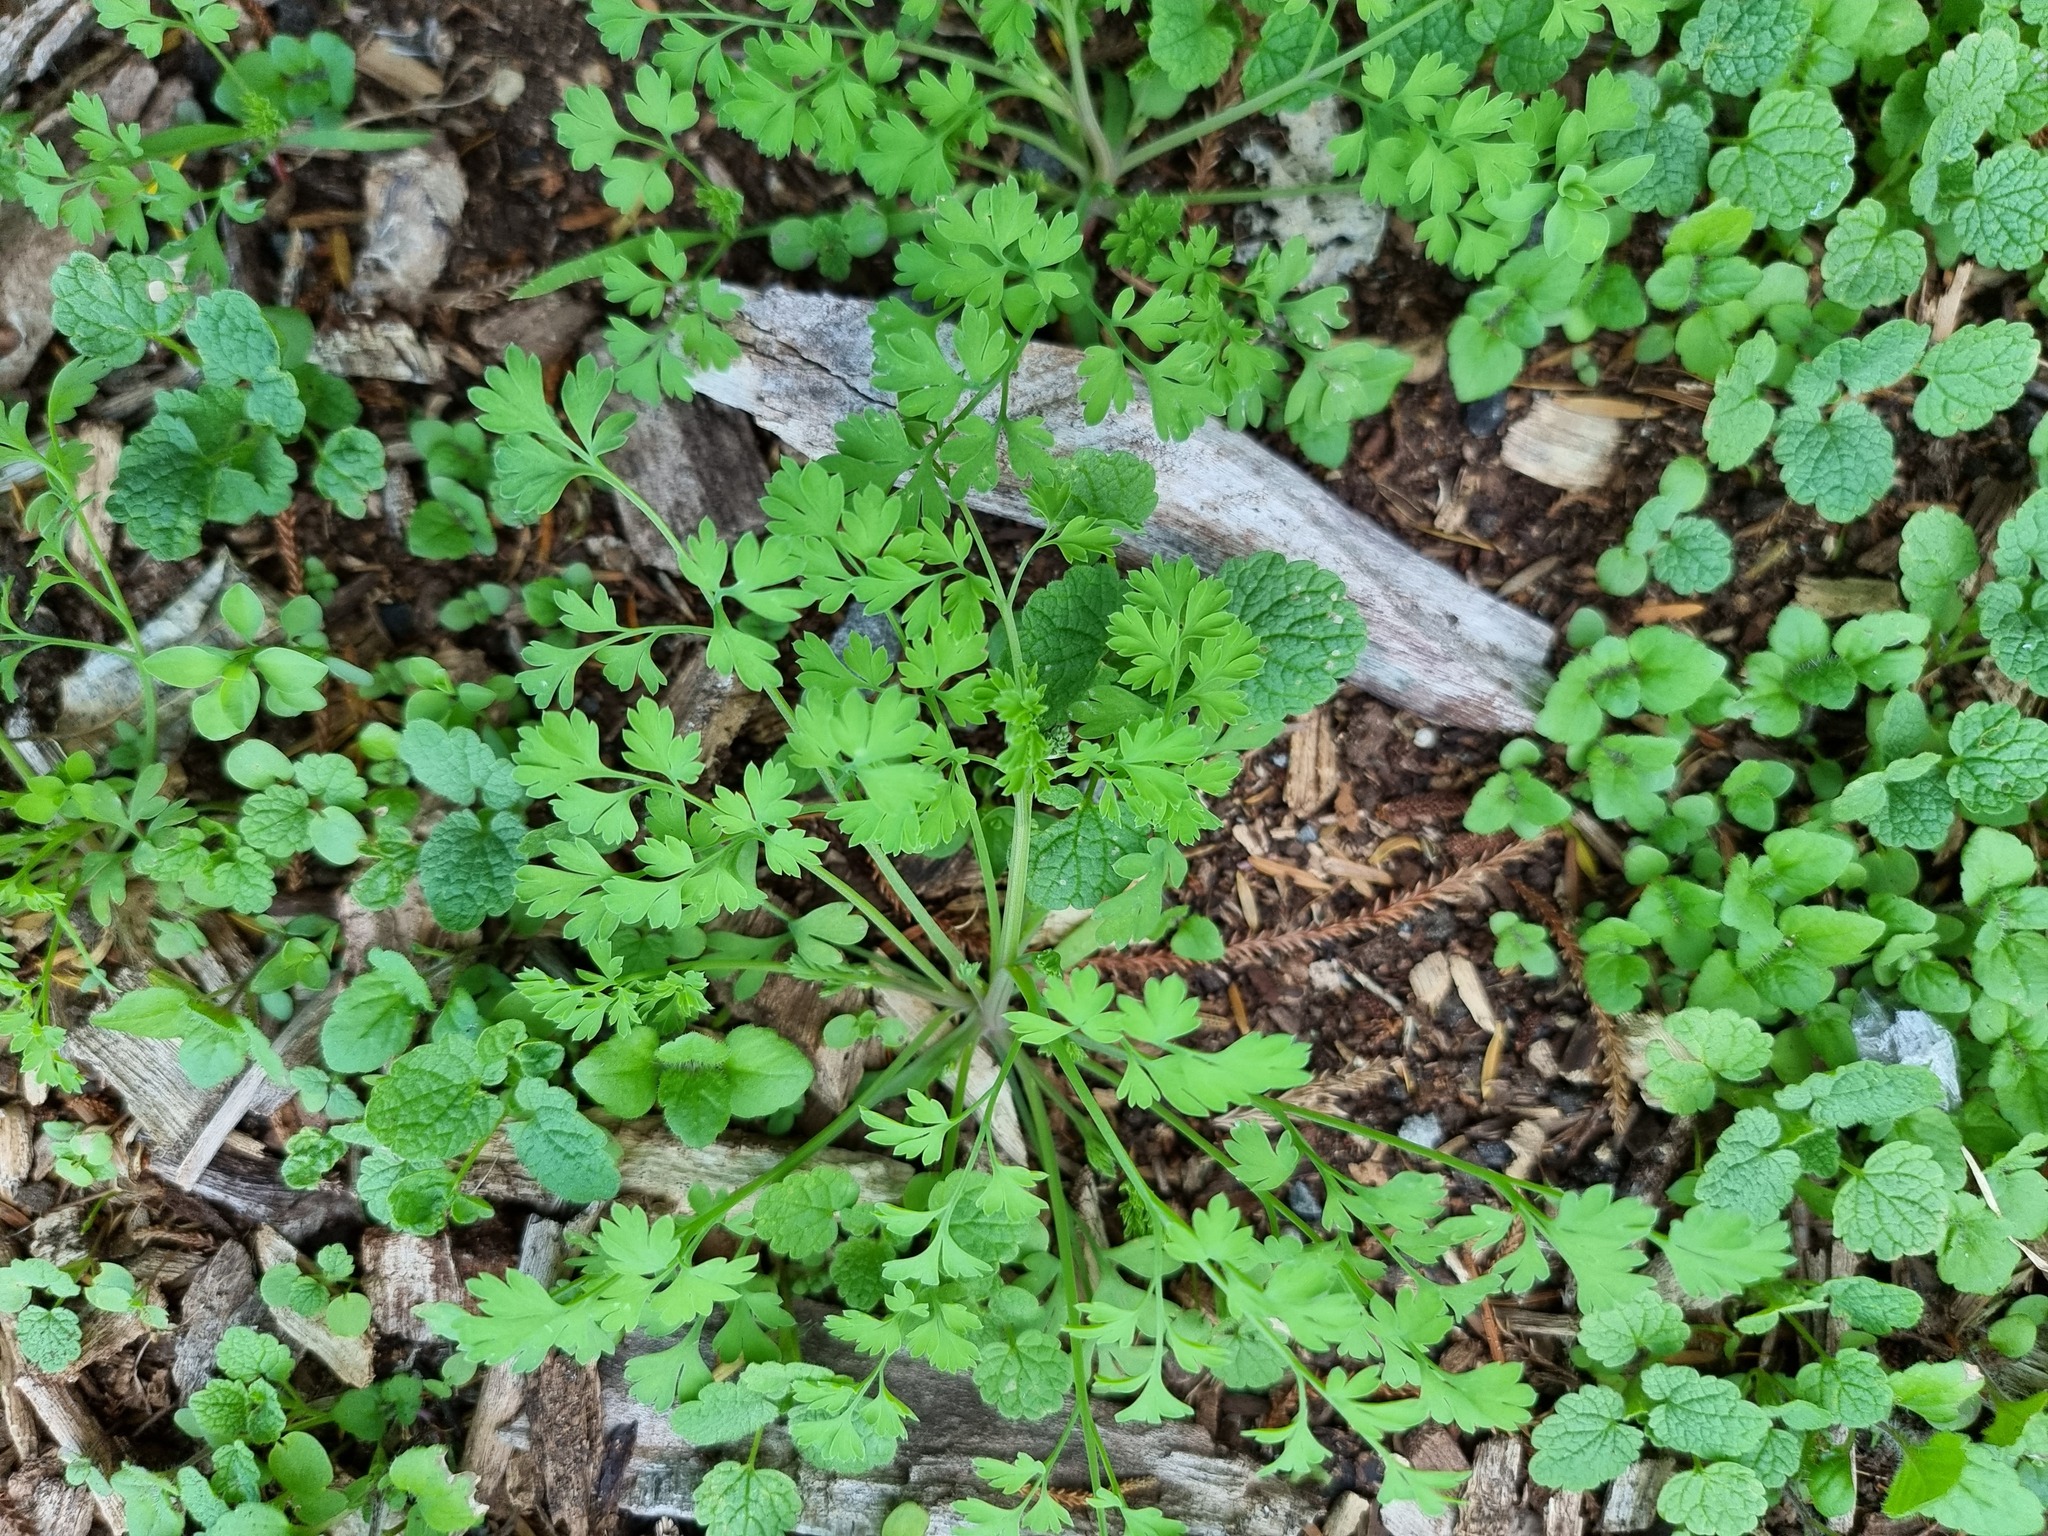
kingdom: Plantae
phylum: Tracheophyta
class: Magnoliopsida
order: Ranunculales
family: Papaveraceae
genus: Fumaria
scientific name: Fumaria muralis
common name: Common ramping-fumitory
